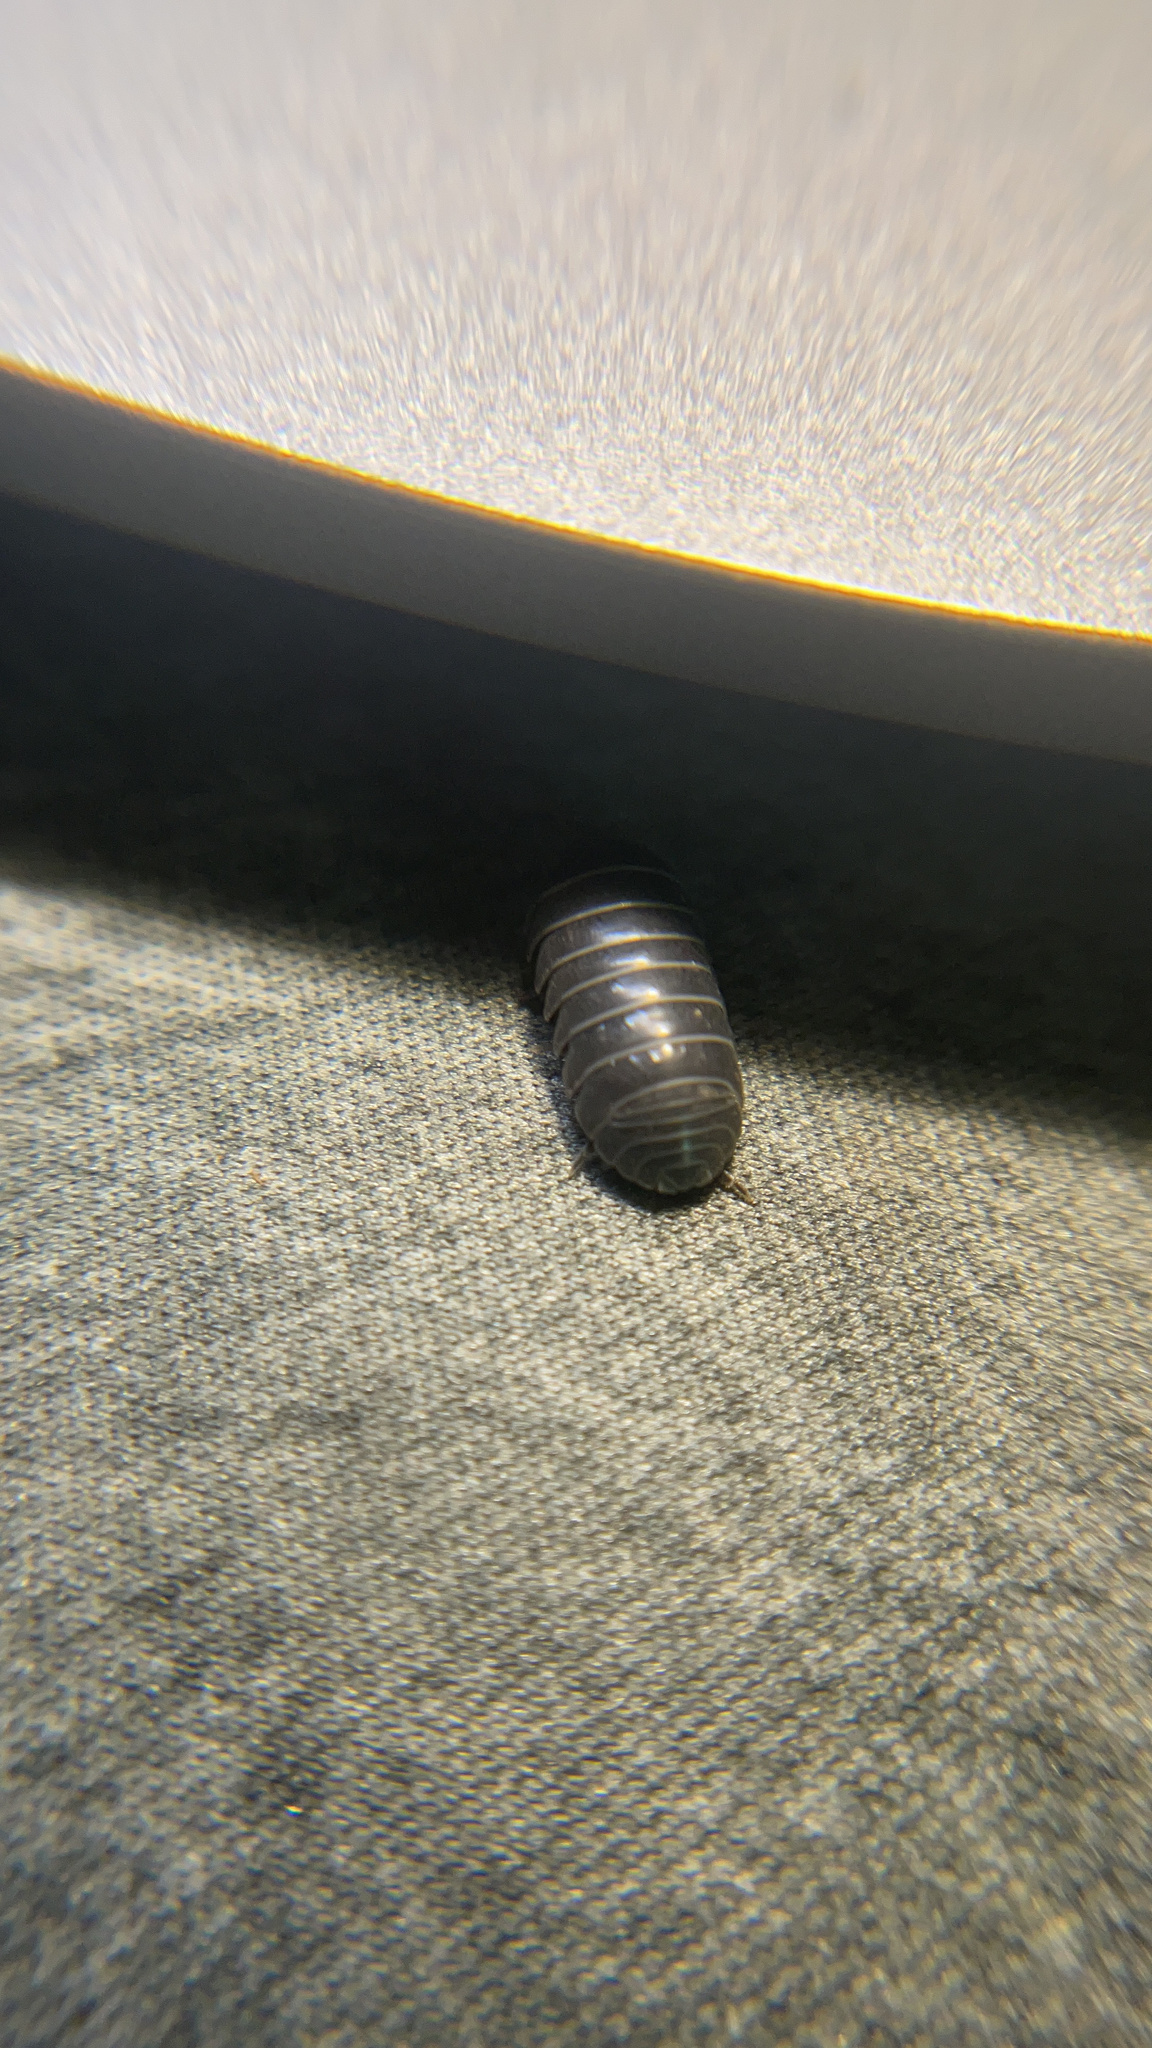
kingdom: Animalia
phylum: Arthropoda
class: Malacostraca
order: Isopoda
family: Armadillidiidae
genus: Armadillidium
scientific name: Armadillidium vulgare
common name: Common pill woodlouse
